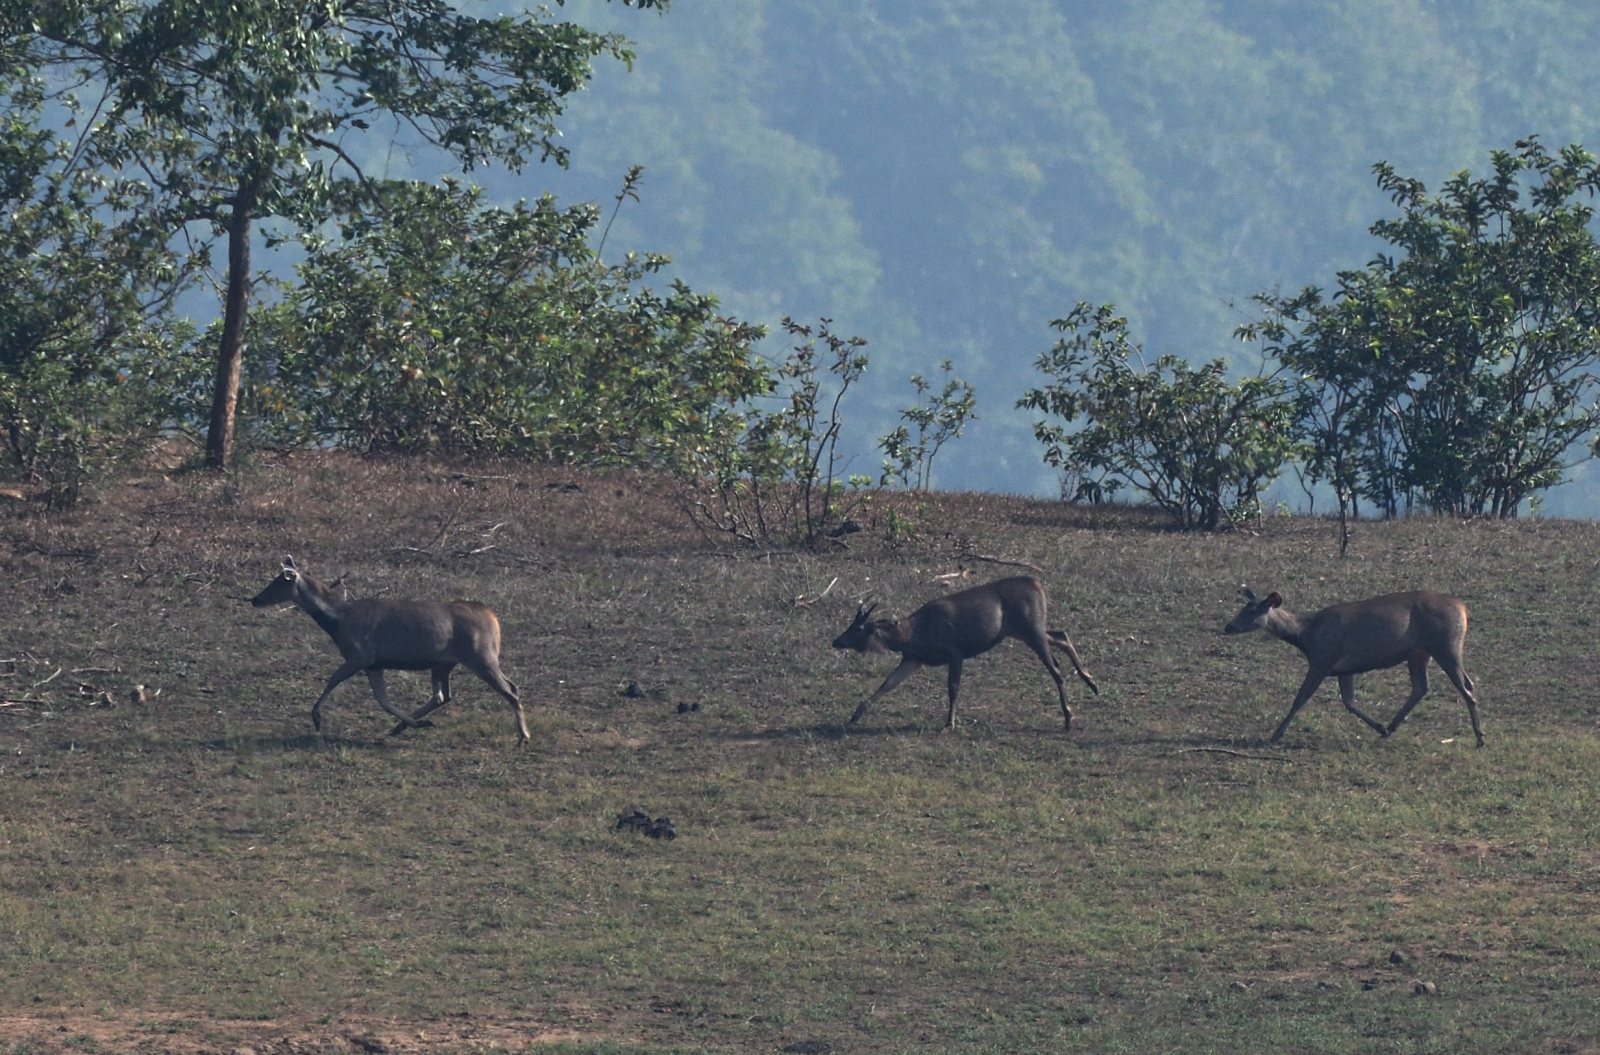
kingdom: Animalia
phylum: Chordata
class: Mammalia
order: Artiodactyla
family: Cervidae
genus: Rusa
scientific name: Rusa unicolor
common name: Sambar
